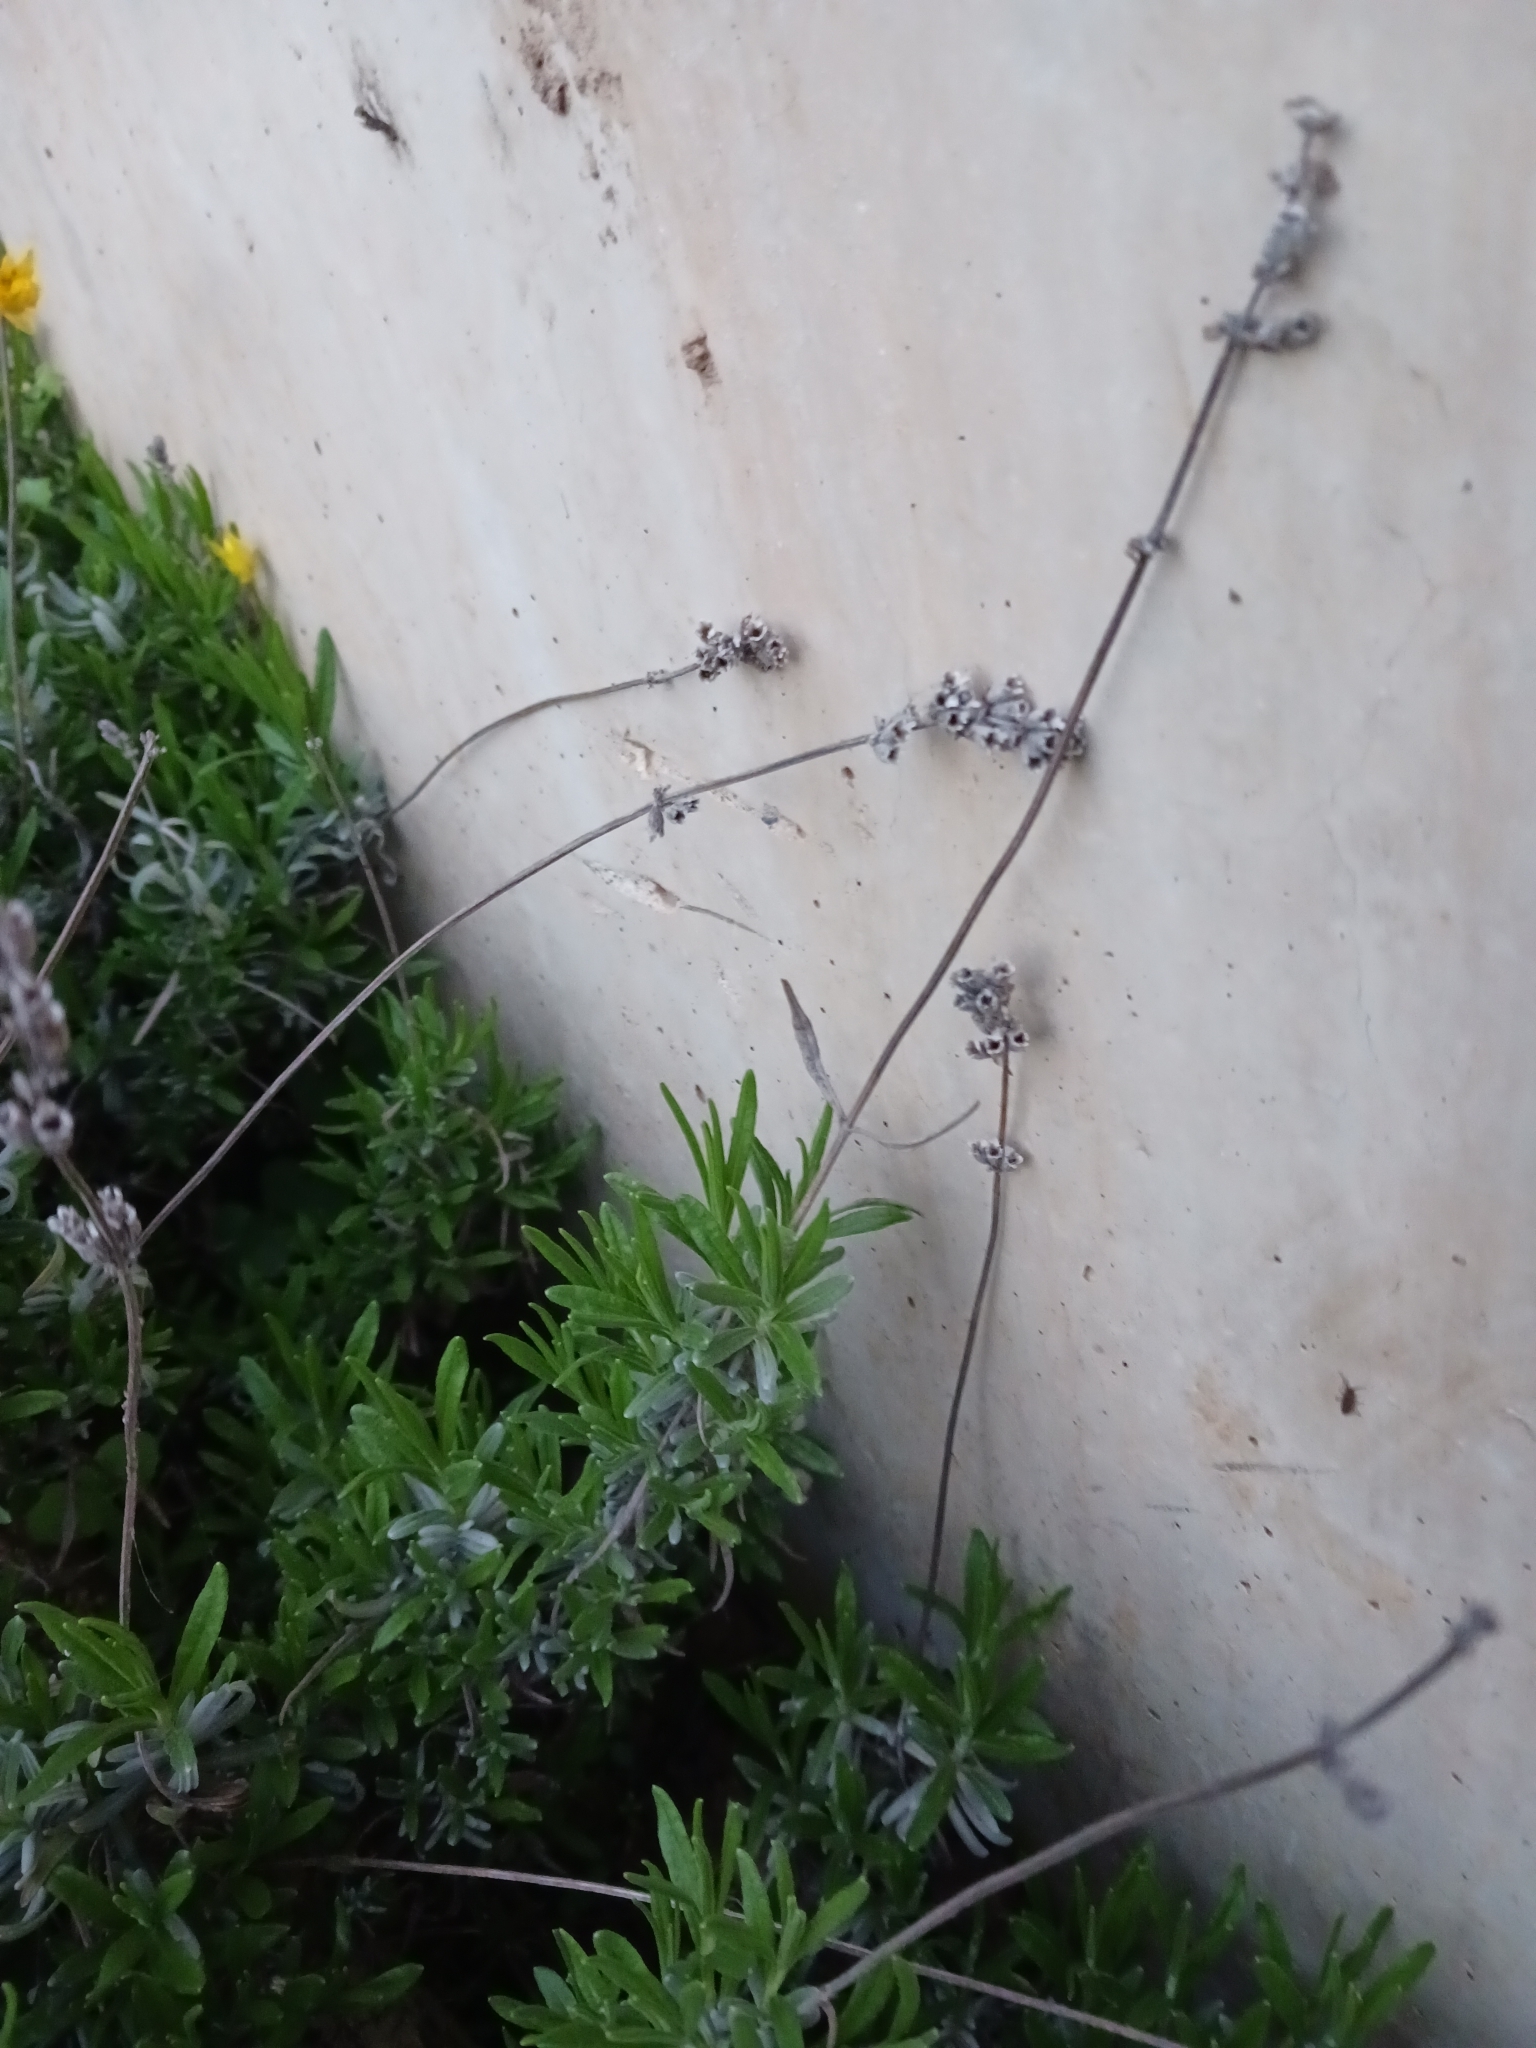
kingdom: Plantae
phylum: Tracheophyta
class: Magnoliopsida
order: Lamiales
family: Lamiaceae
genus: Lavandula
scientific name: Lavandula angustifolia
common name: Garden lavender
